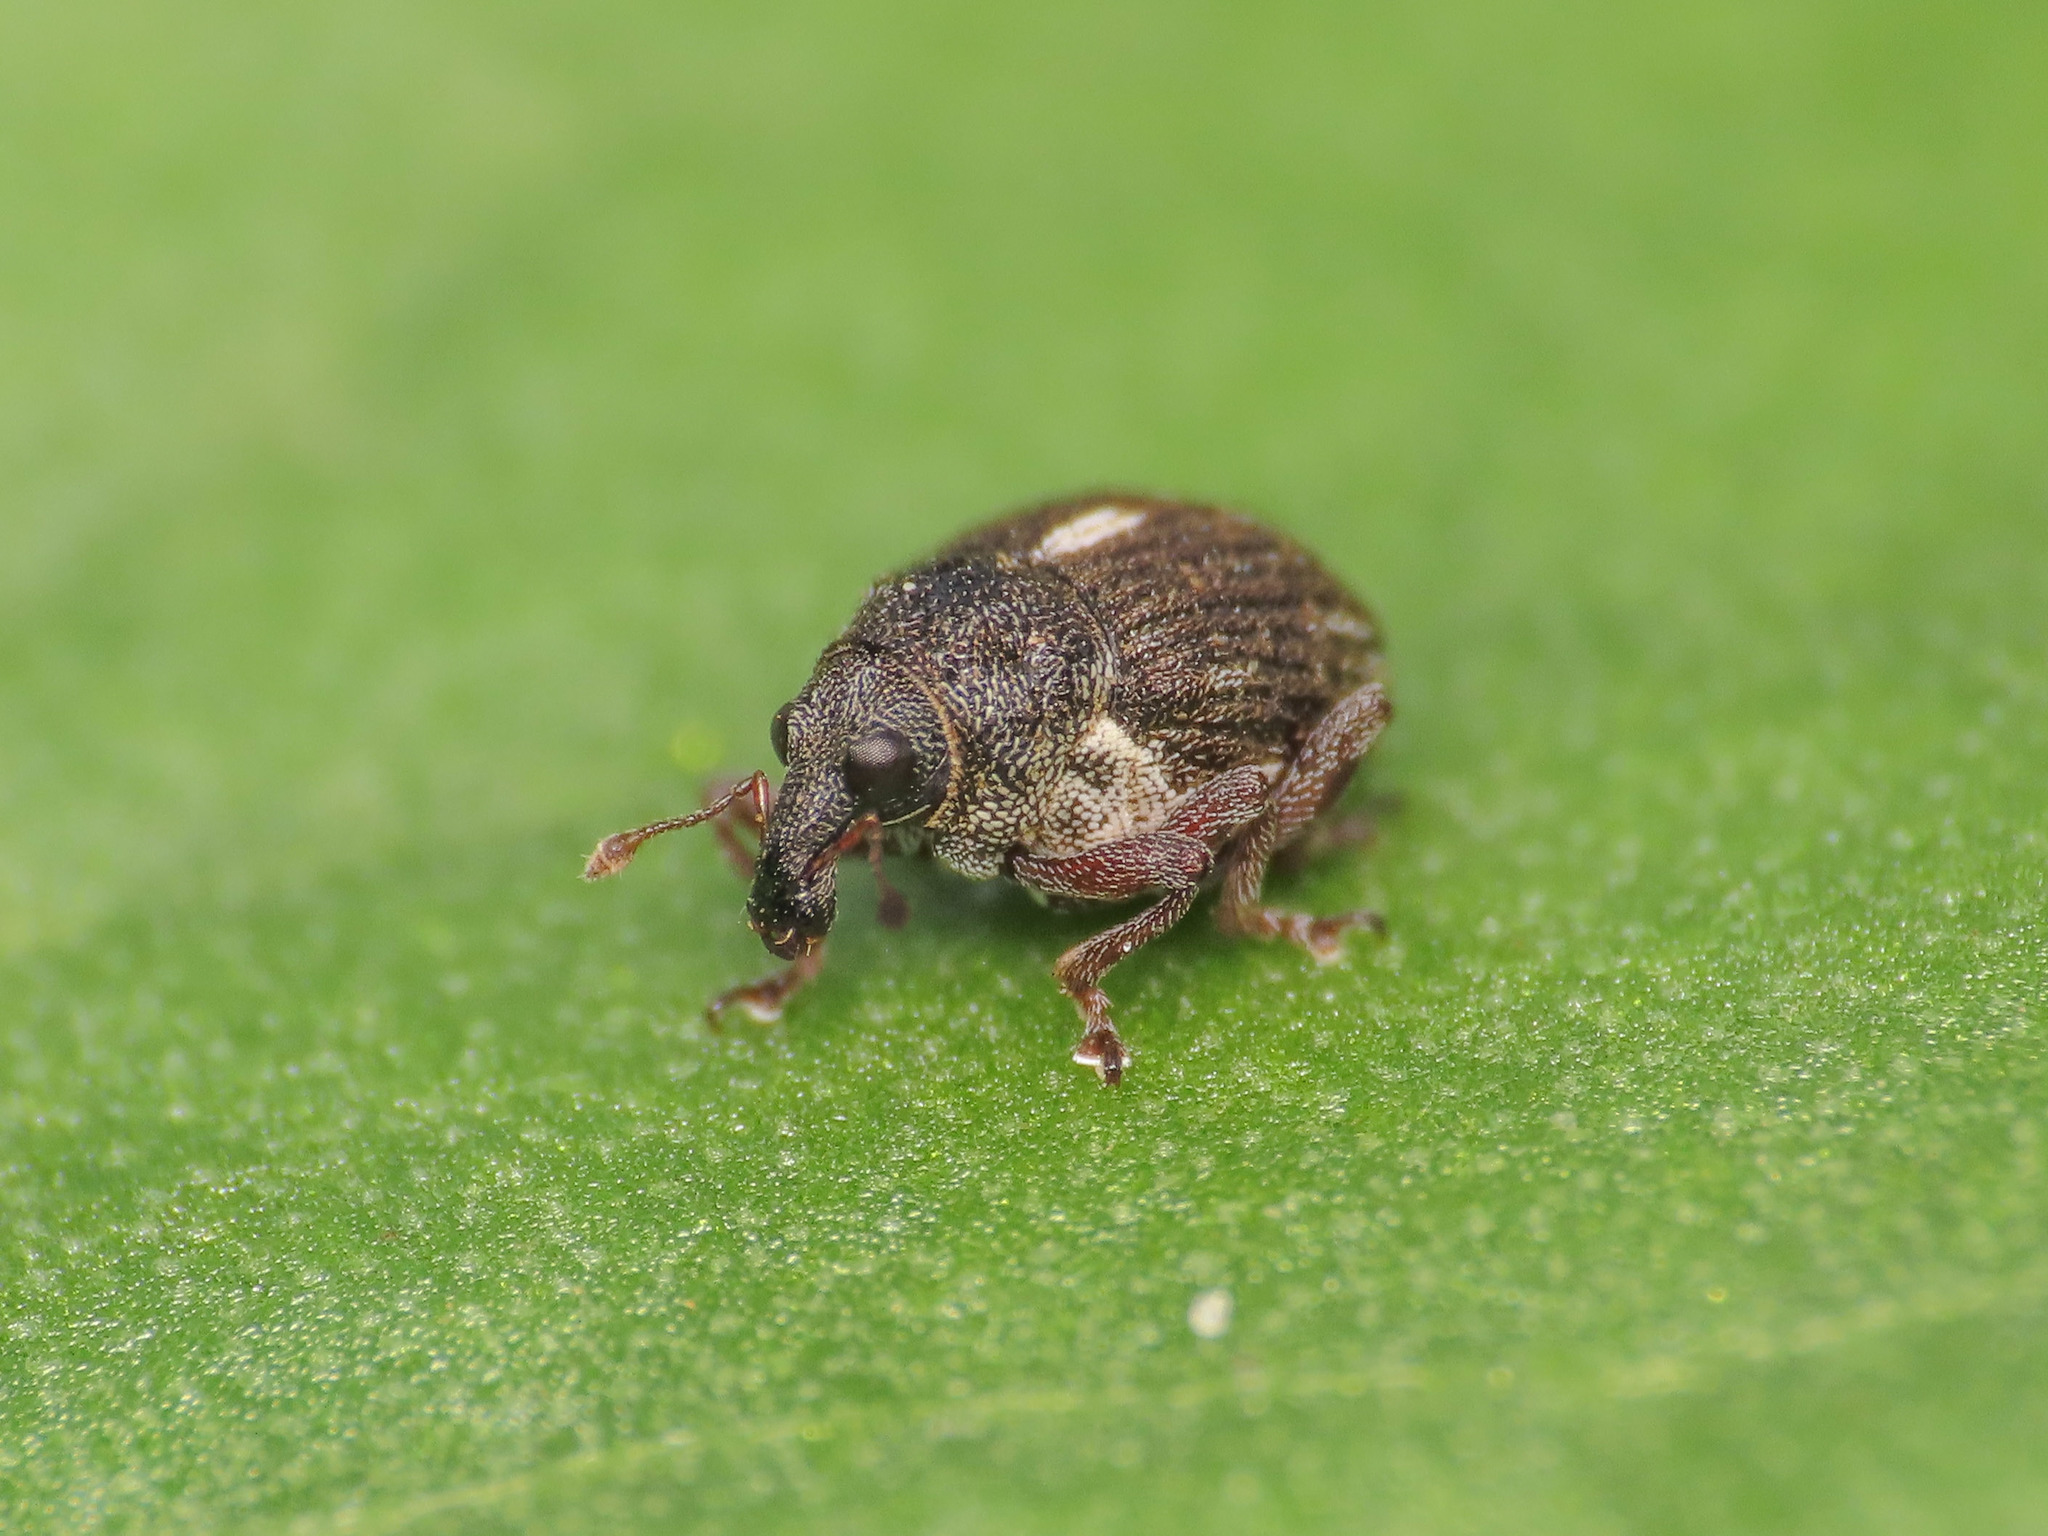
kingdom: Animalia
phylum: Arthropoda
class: Insecta
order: Coleoptera
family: Curculionidae
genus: Rhinoncus
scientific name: Rhinoncus leucostigma
